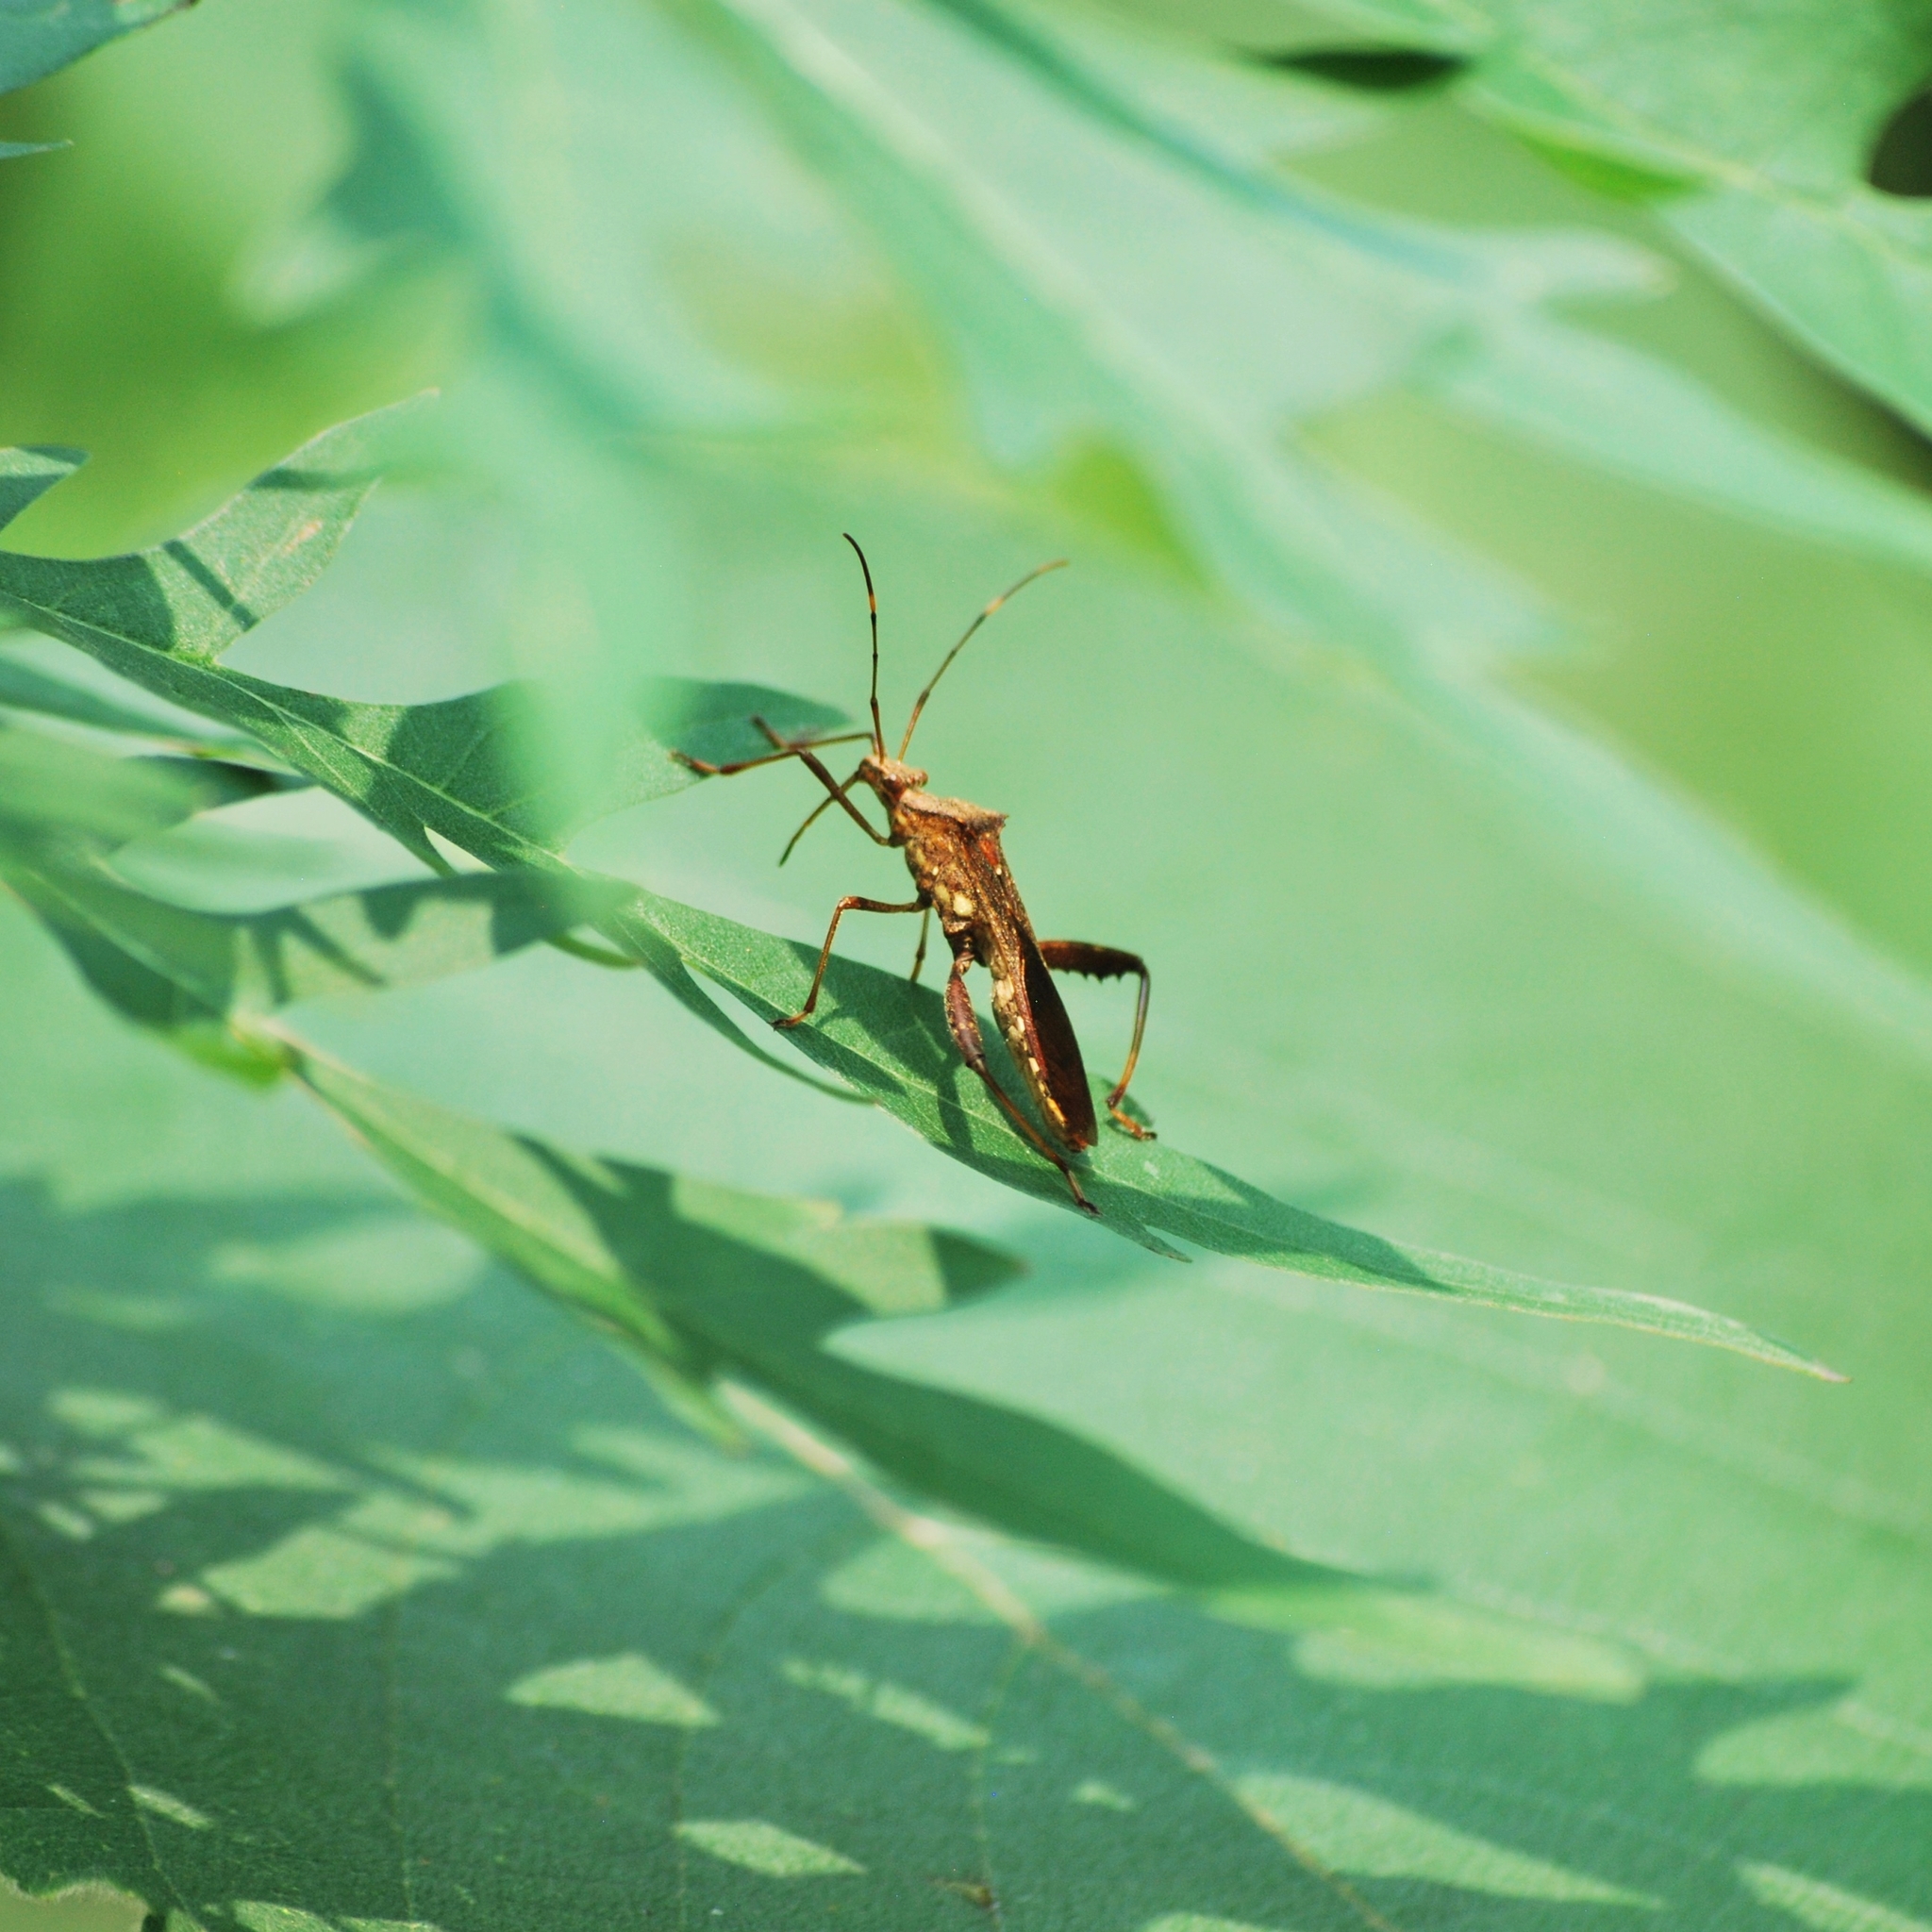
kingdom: Animalia
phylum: Arthropoda
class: Insecta
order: Hemiptera
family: Alydidae
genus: Riptortus
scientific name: Riptortus pedestris
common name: Bean bug
